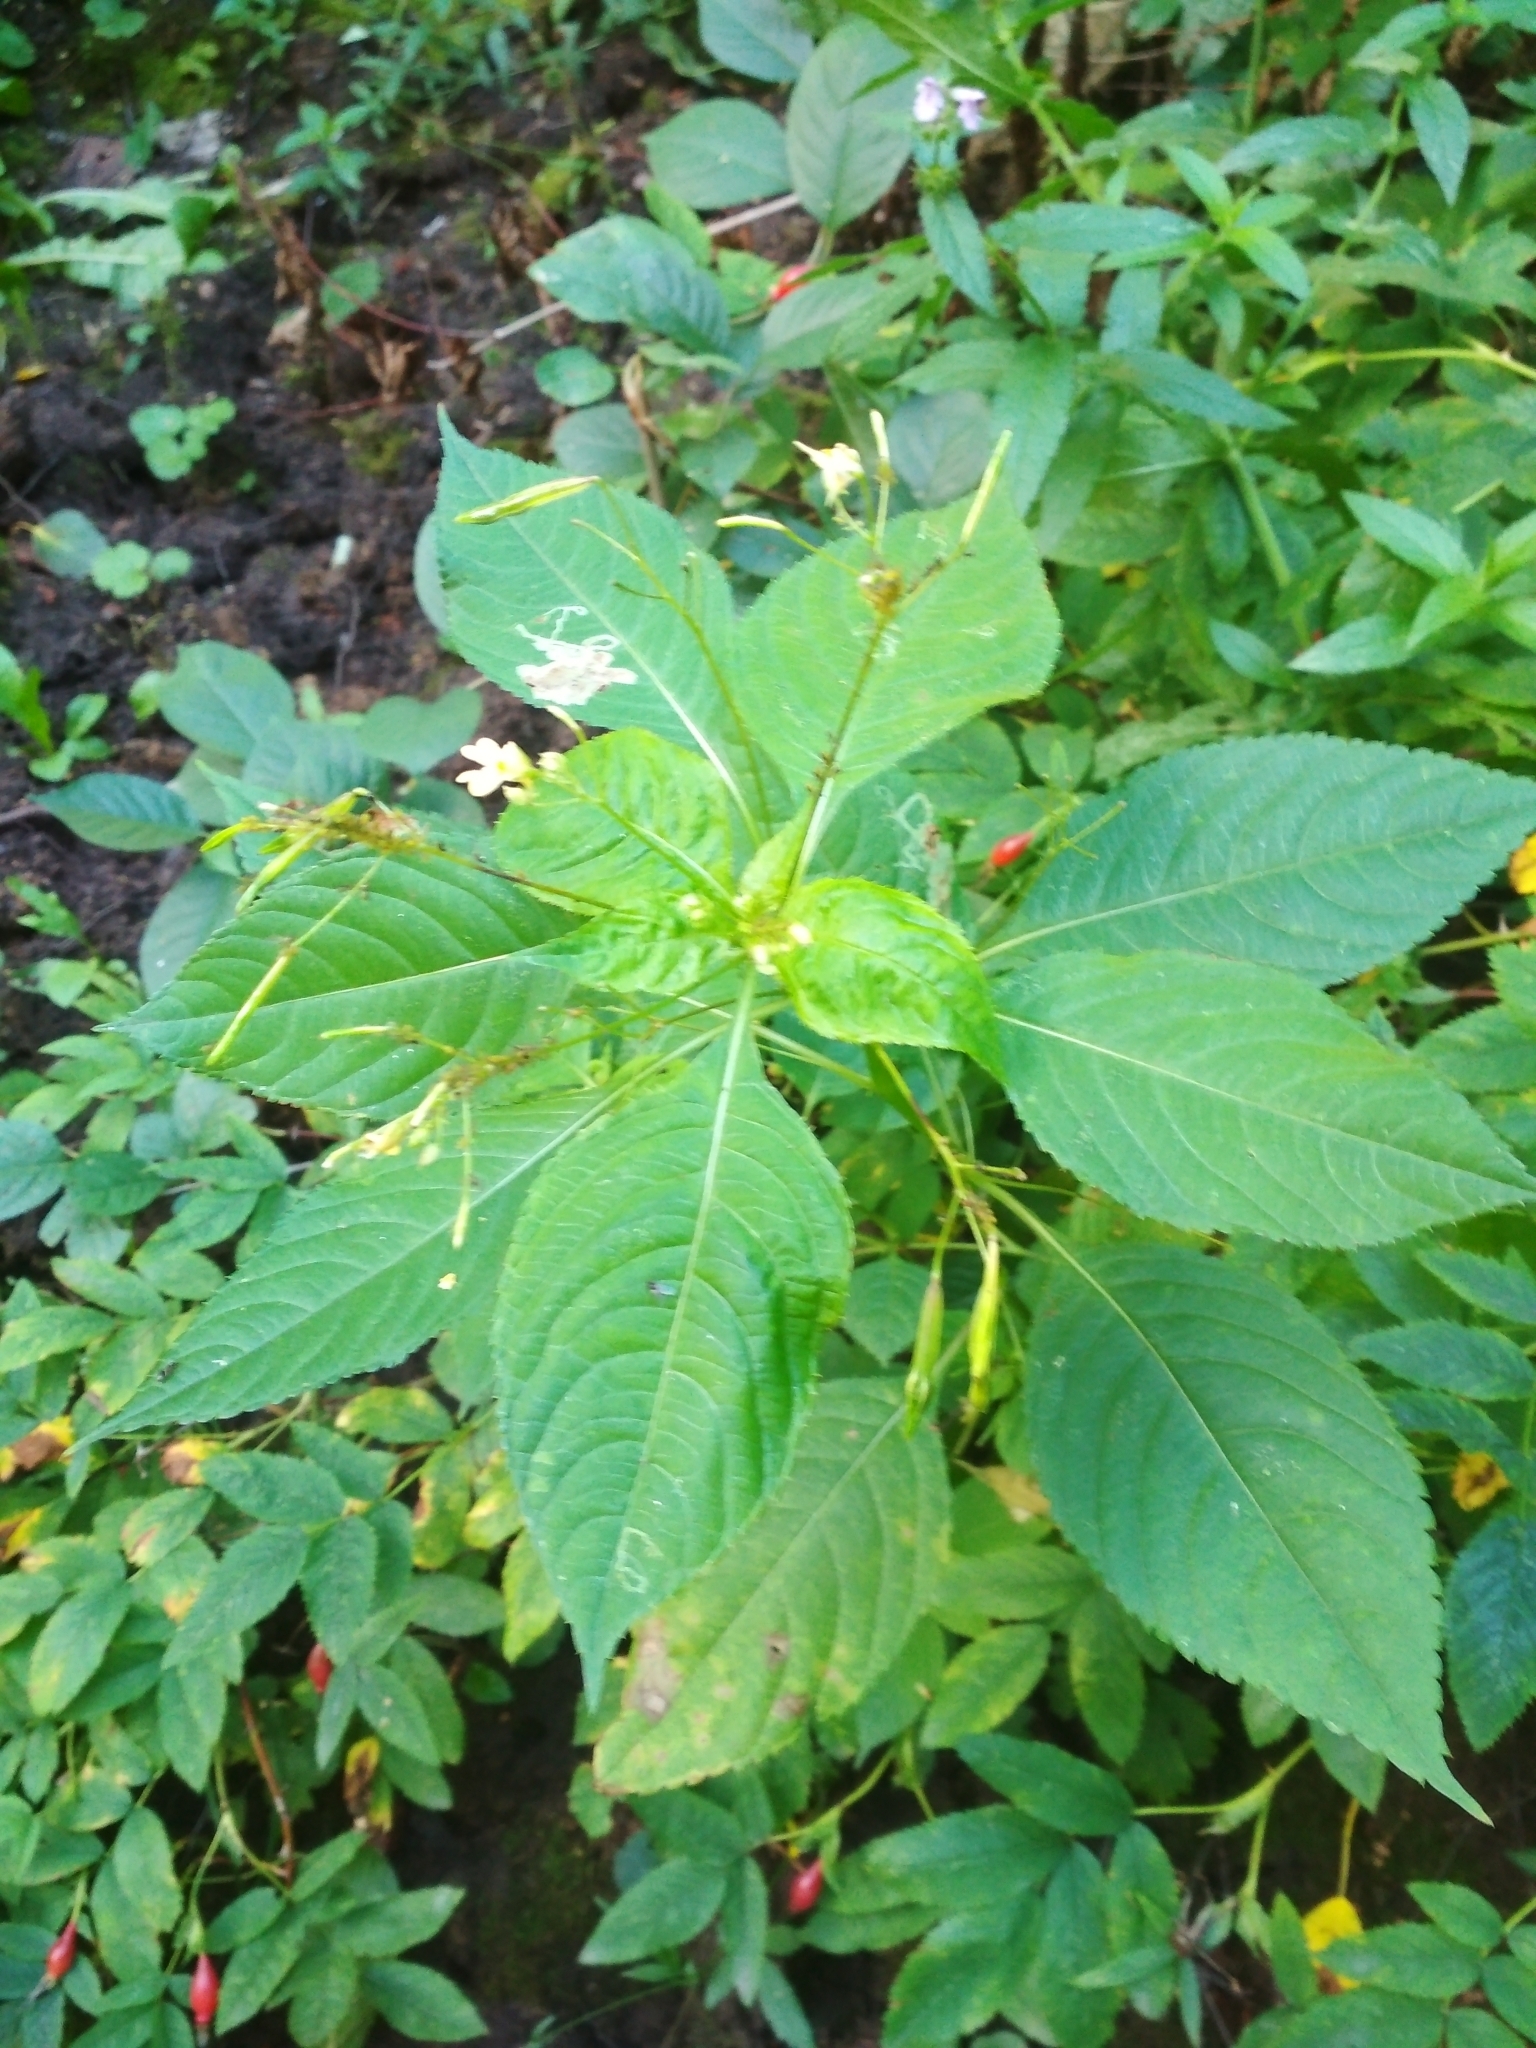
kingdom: Plantae
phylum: Tracheophyta
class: Magnoliopsida
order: Ericales
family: Balsaminaceae
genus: Impatiens
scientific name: Impatiens parviflora
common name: Small balsam
